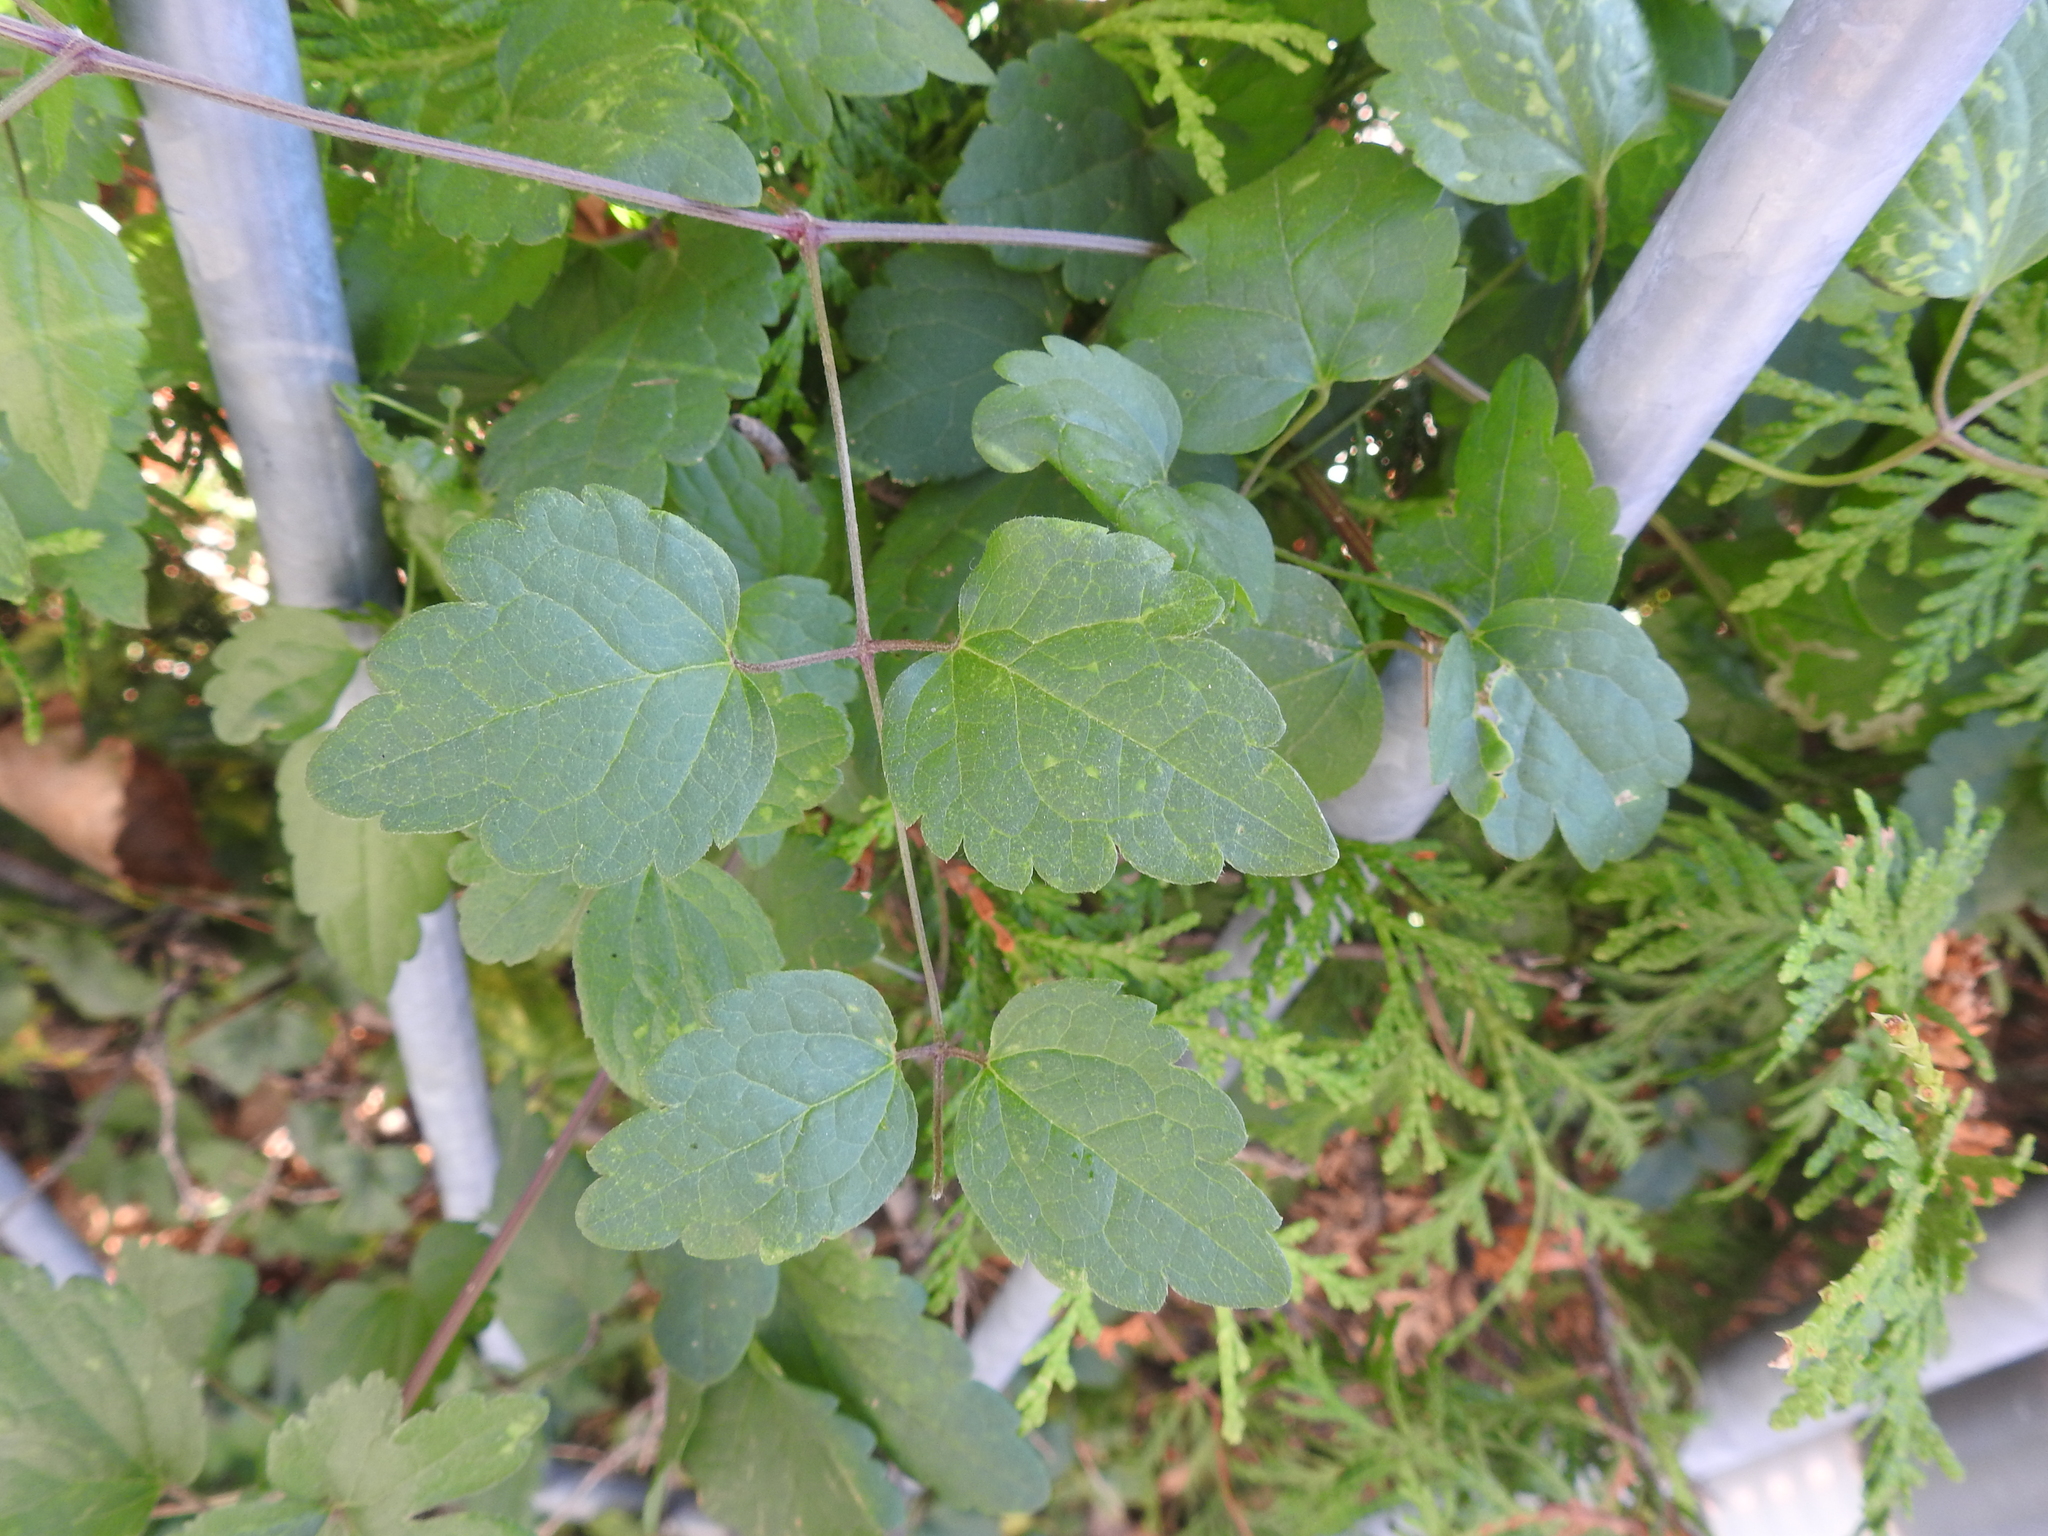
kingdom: Plantae
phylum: Tracheophyta
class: Magnoliopsida
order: Ranunculales
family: Ranunculaceae
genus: Clematis
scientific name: Clematis vitalba
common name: Evergreen clematis
